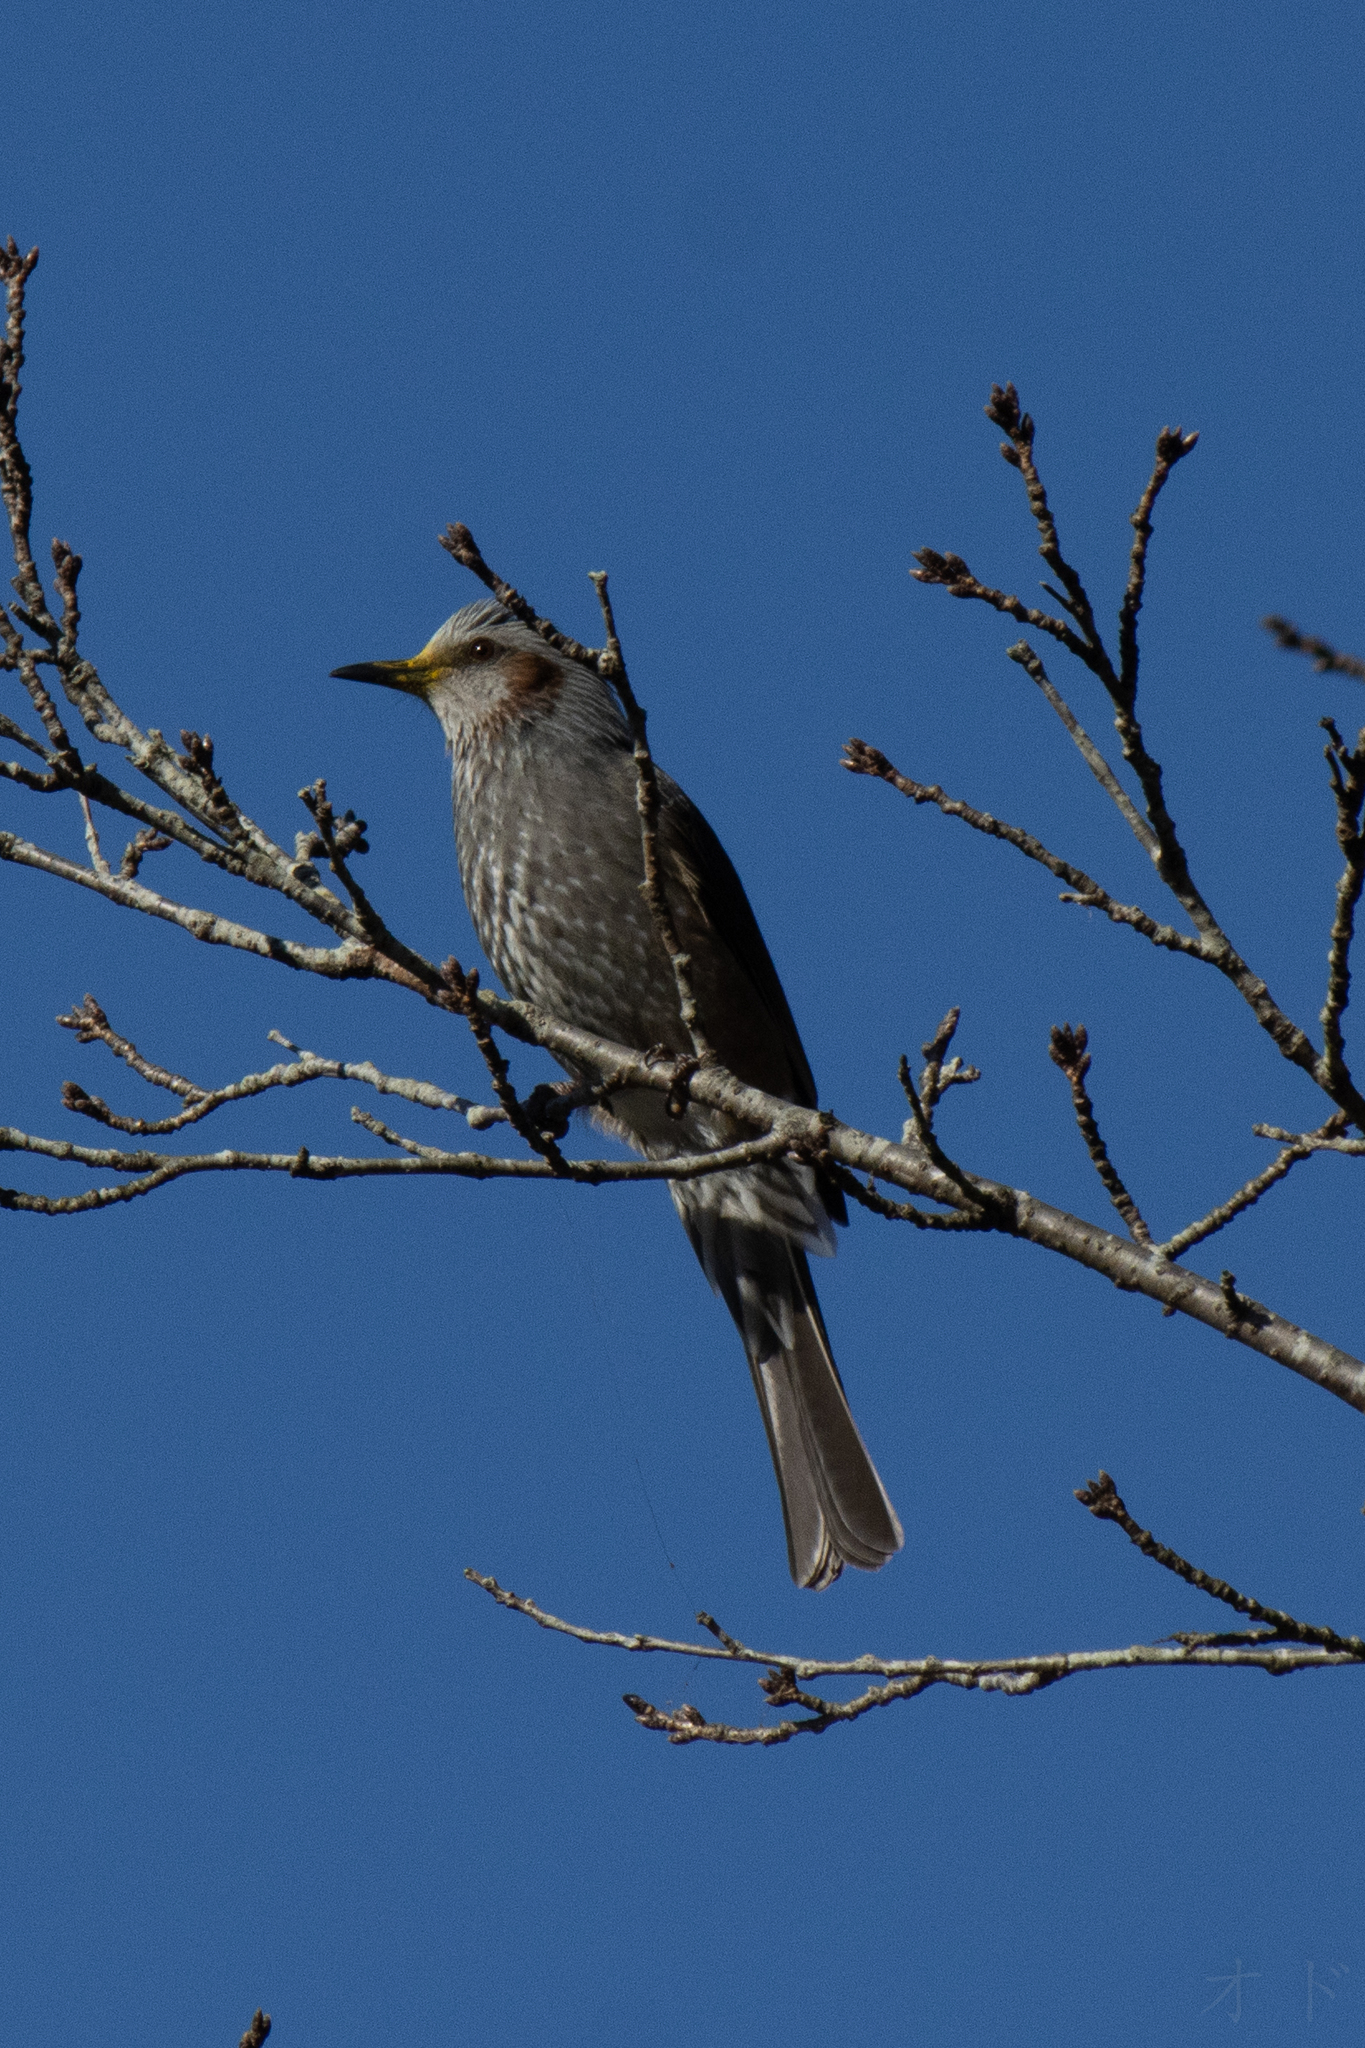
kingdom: Animalia
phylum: Chordata
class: Aves
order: Passeriformes
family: Pycnonotidae
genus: Hypsipetes
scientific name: Hypsipetes amaurotis
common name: Brown-eared bulbul
